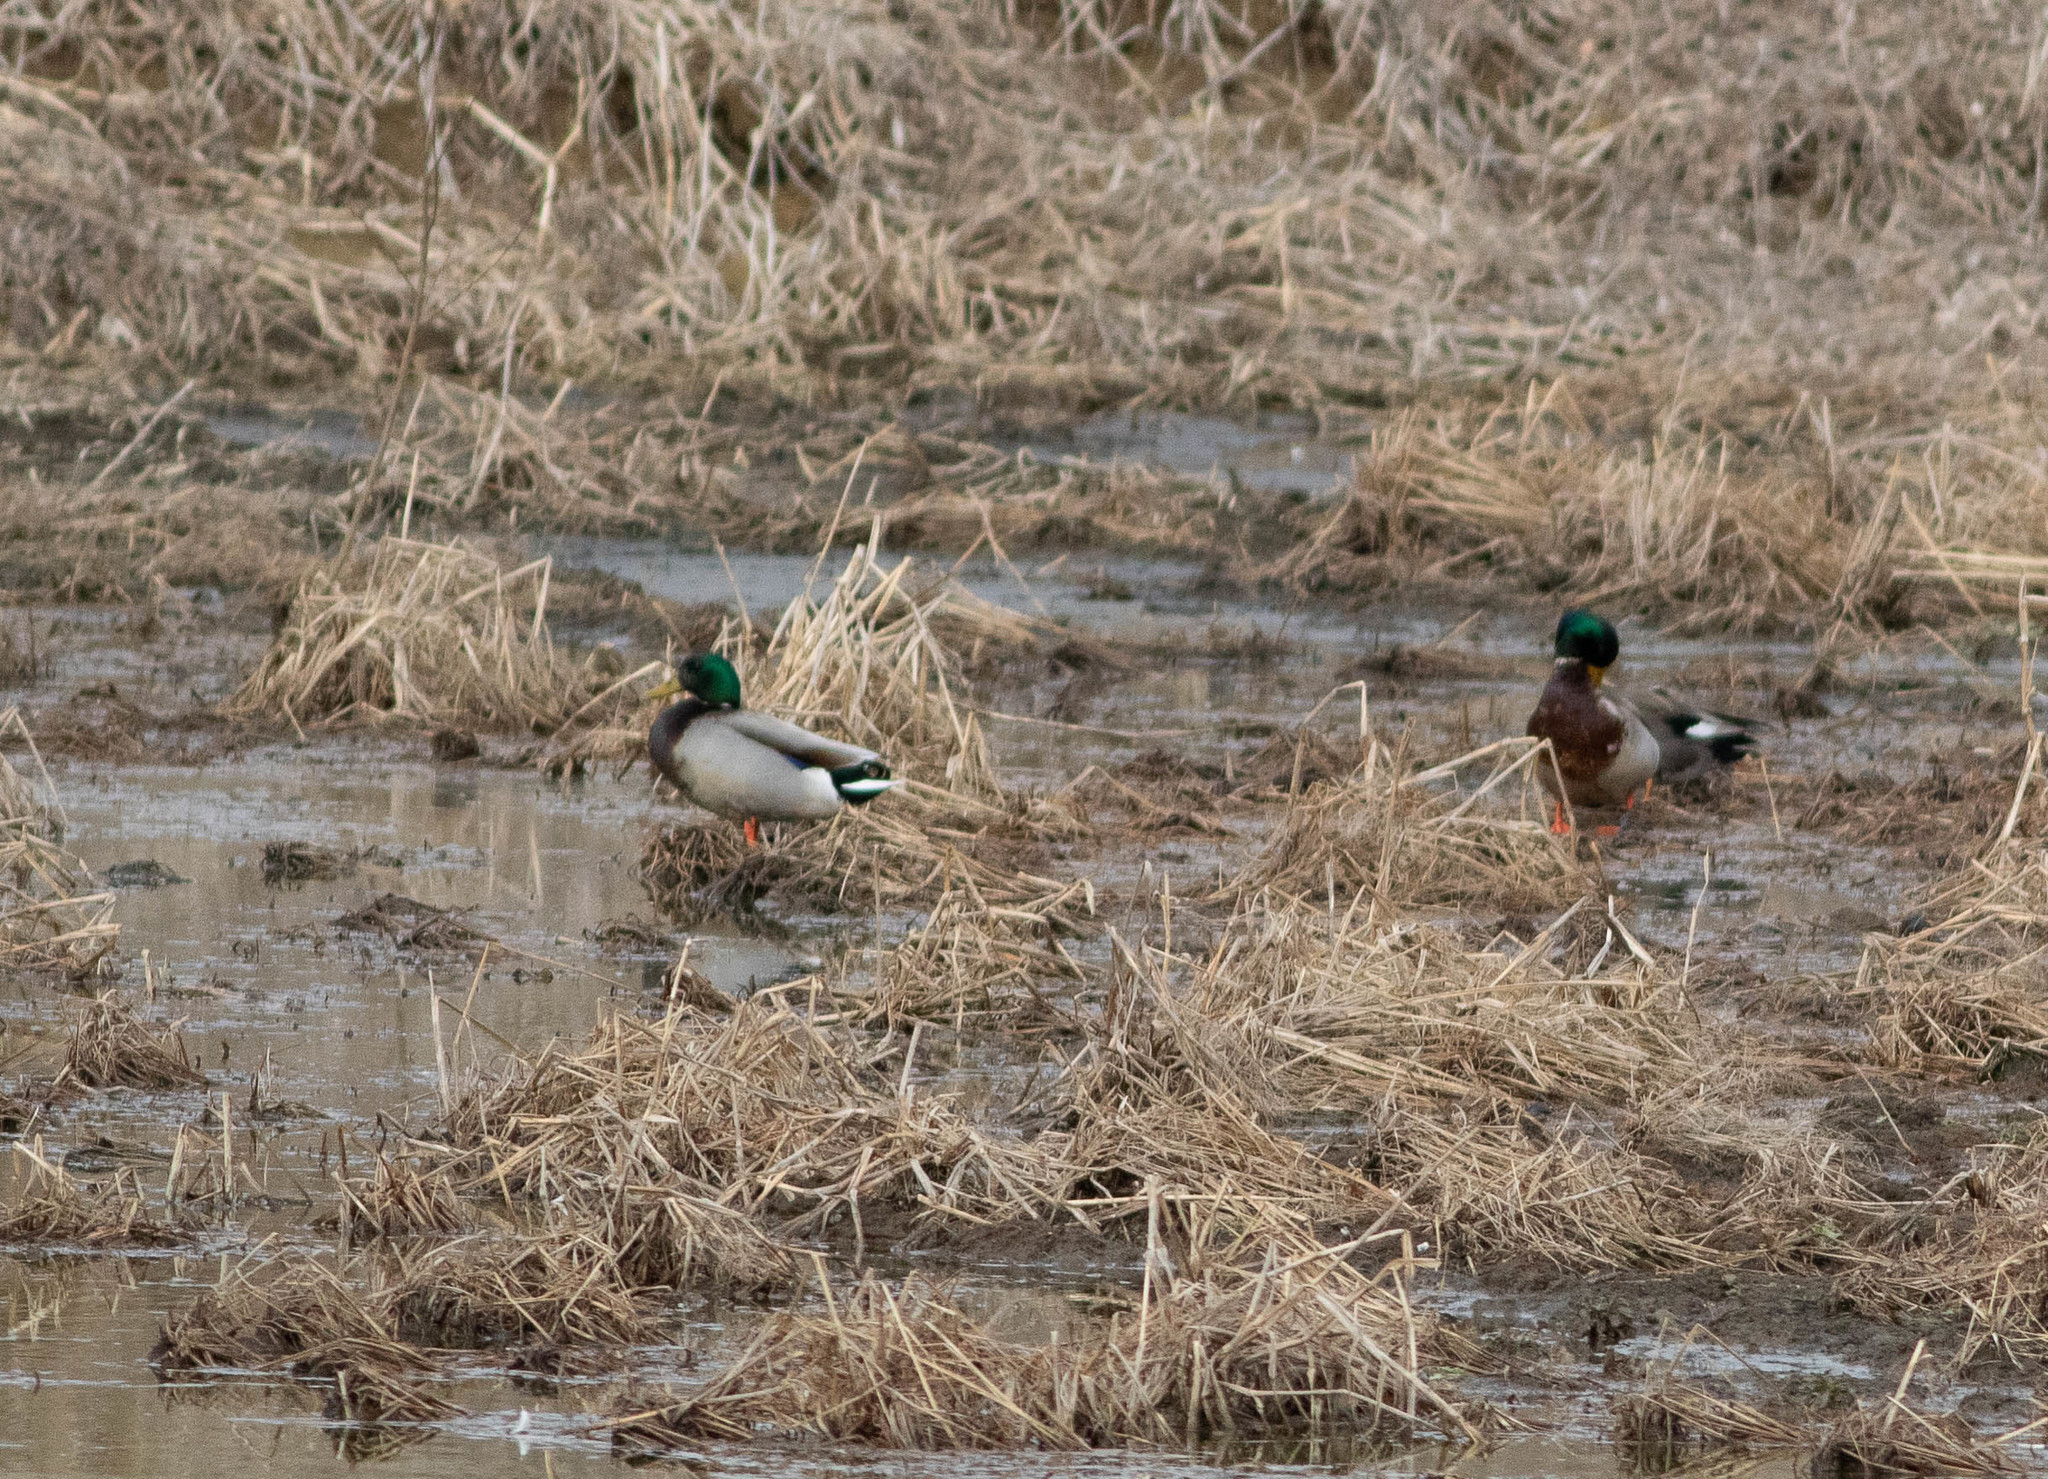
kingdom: Animalia
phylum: Chordata
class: Aves
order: Anseriformes
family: Anatidae
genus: Anas
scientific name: Anas platyrhynchos
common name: Mallard
